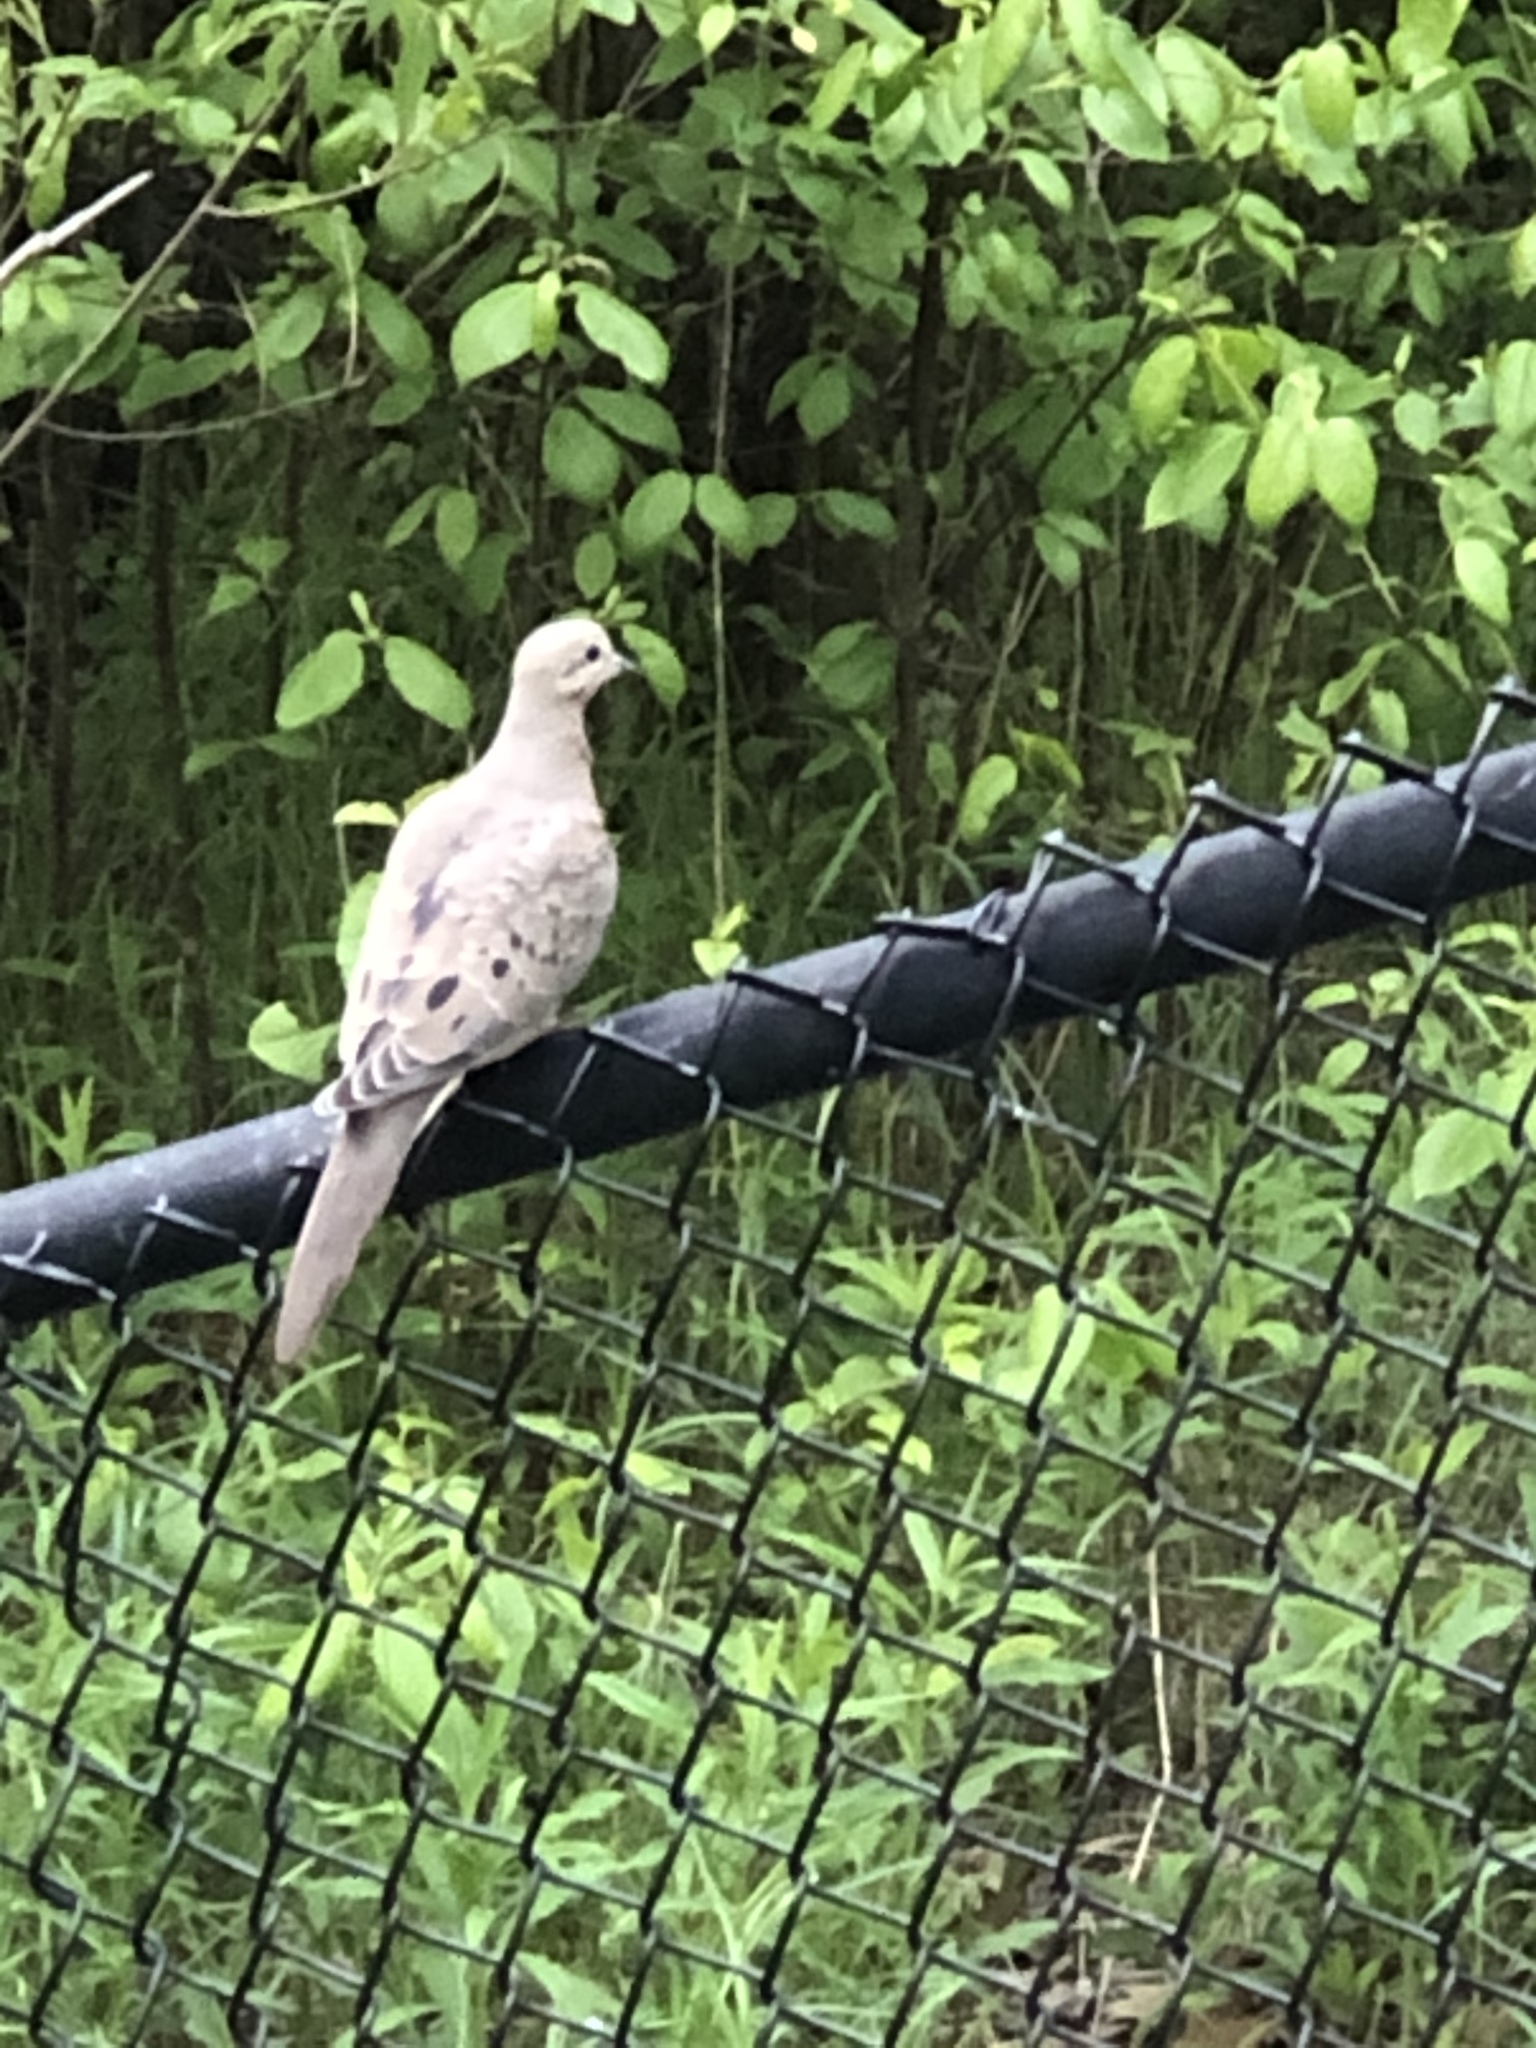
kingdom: Animalia
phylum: Chordata
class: Aves
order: Columbiformes
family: Columbidae
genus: Zenaida
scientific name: Zenaida macroura
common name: Mourning dove
